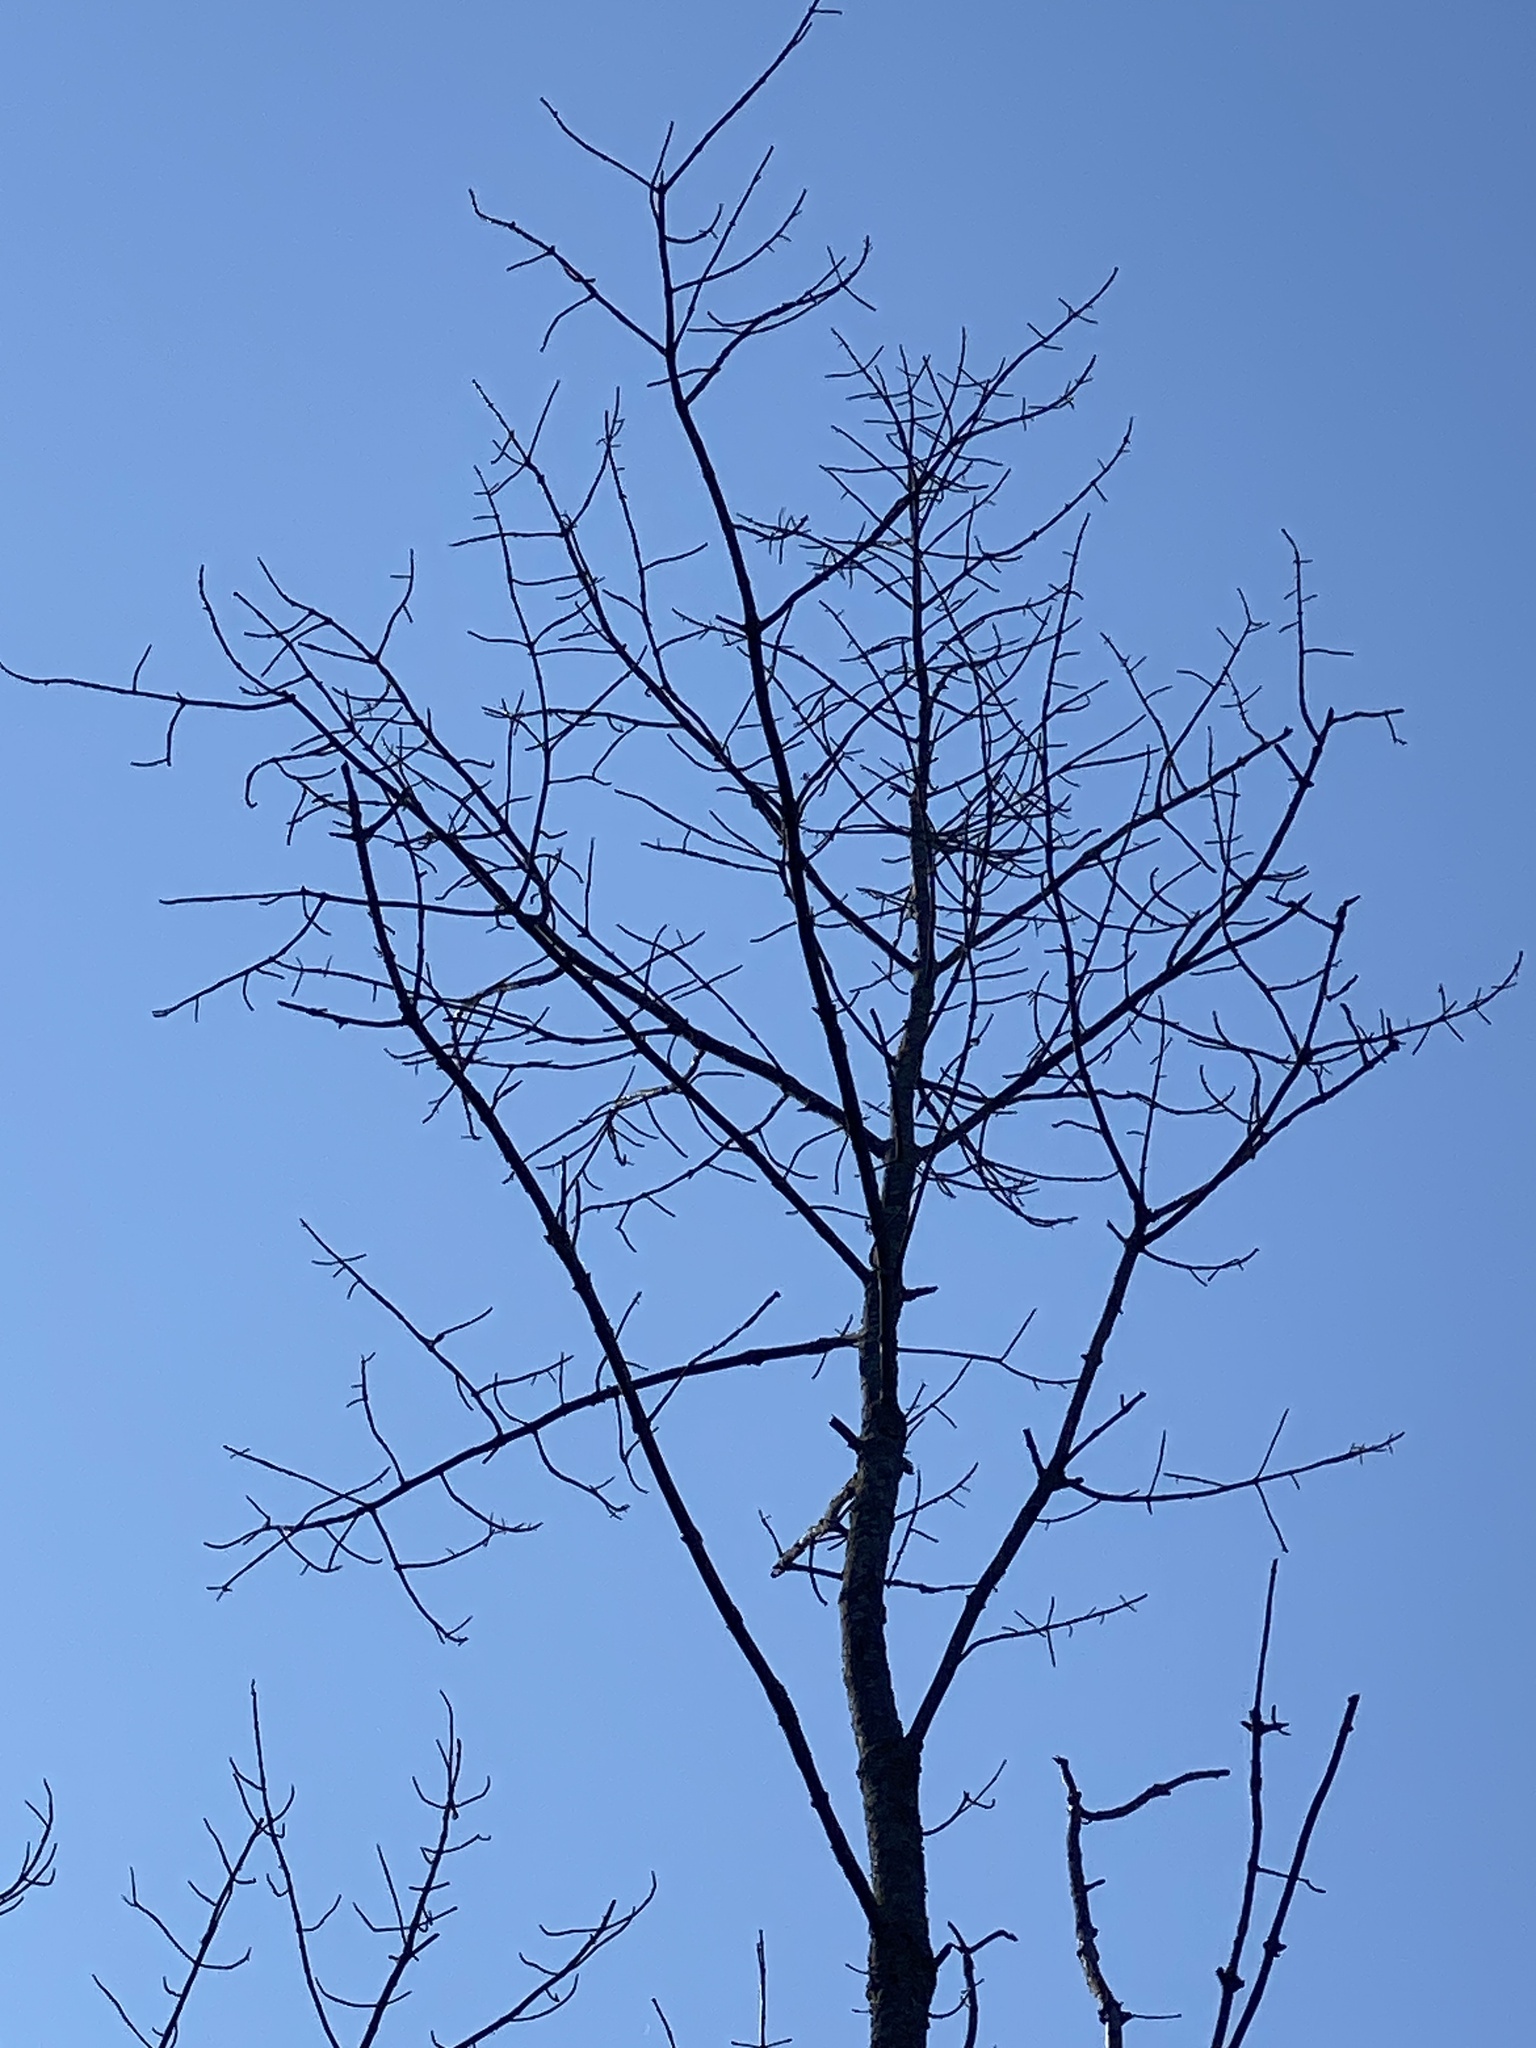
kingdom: Animalia
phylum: Arthropoda
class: Insecta
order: Coleoptera
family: Buprestidae
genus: Agrilus
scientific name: Agrilus planipennis
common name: Emerald ash borer
